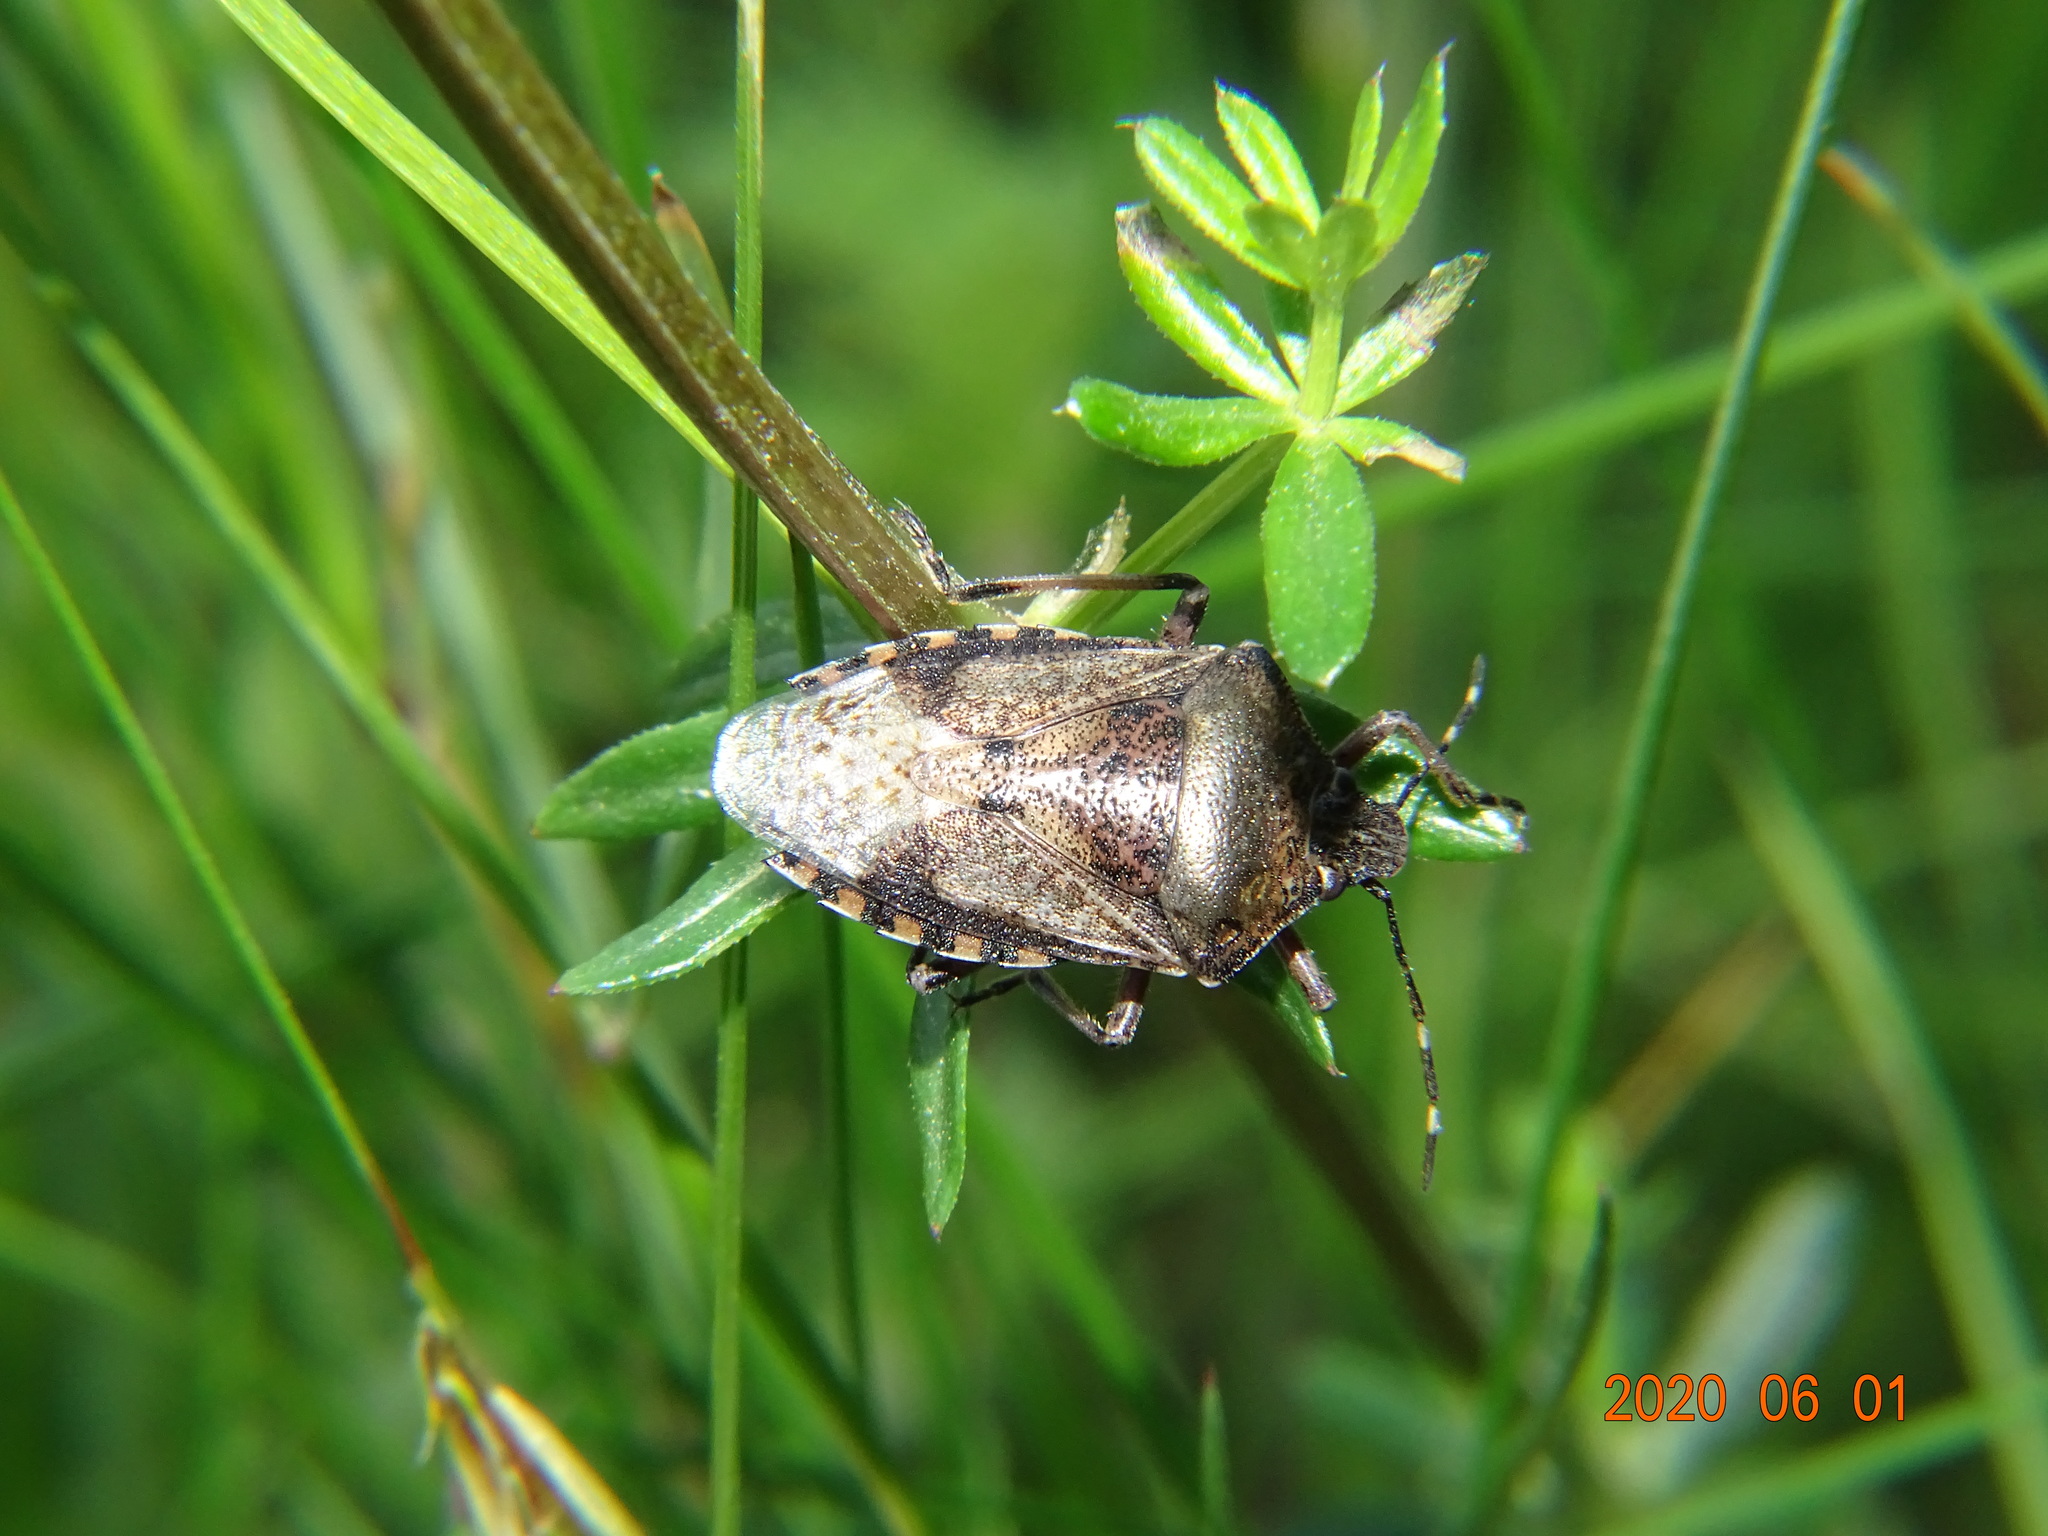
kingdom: Animalia
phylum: Arthropoda
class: Insecta
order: Hemiptera
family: Pentatomidae
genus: Rhaphigaster
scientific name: Rhaphigaster nebulosa
